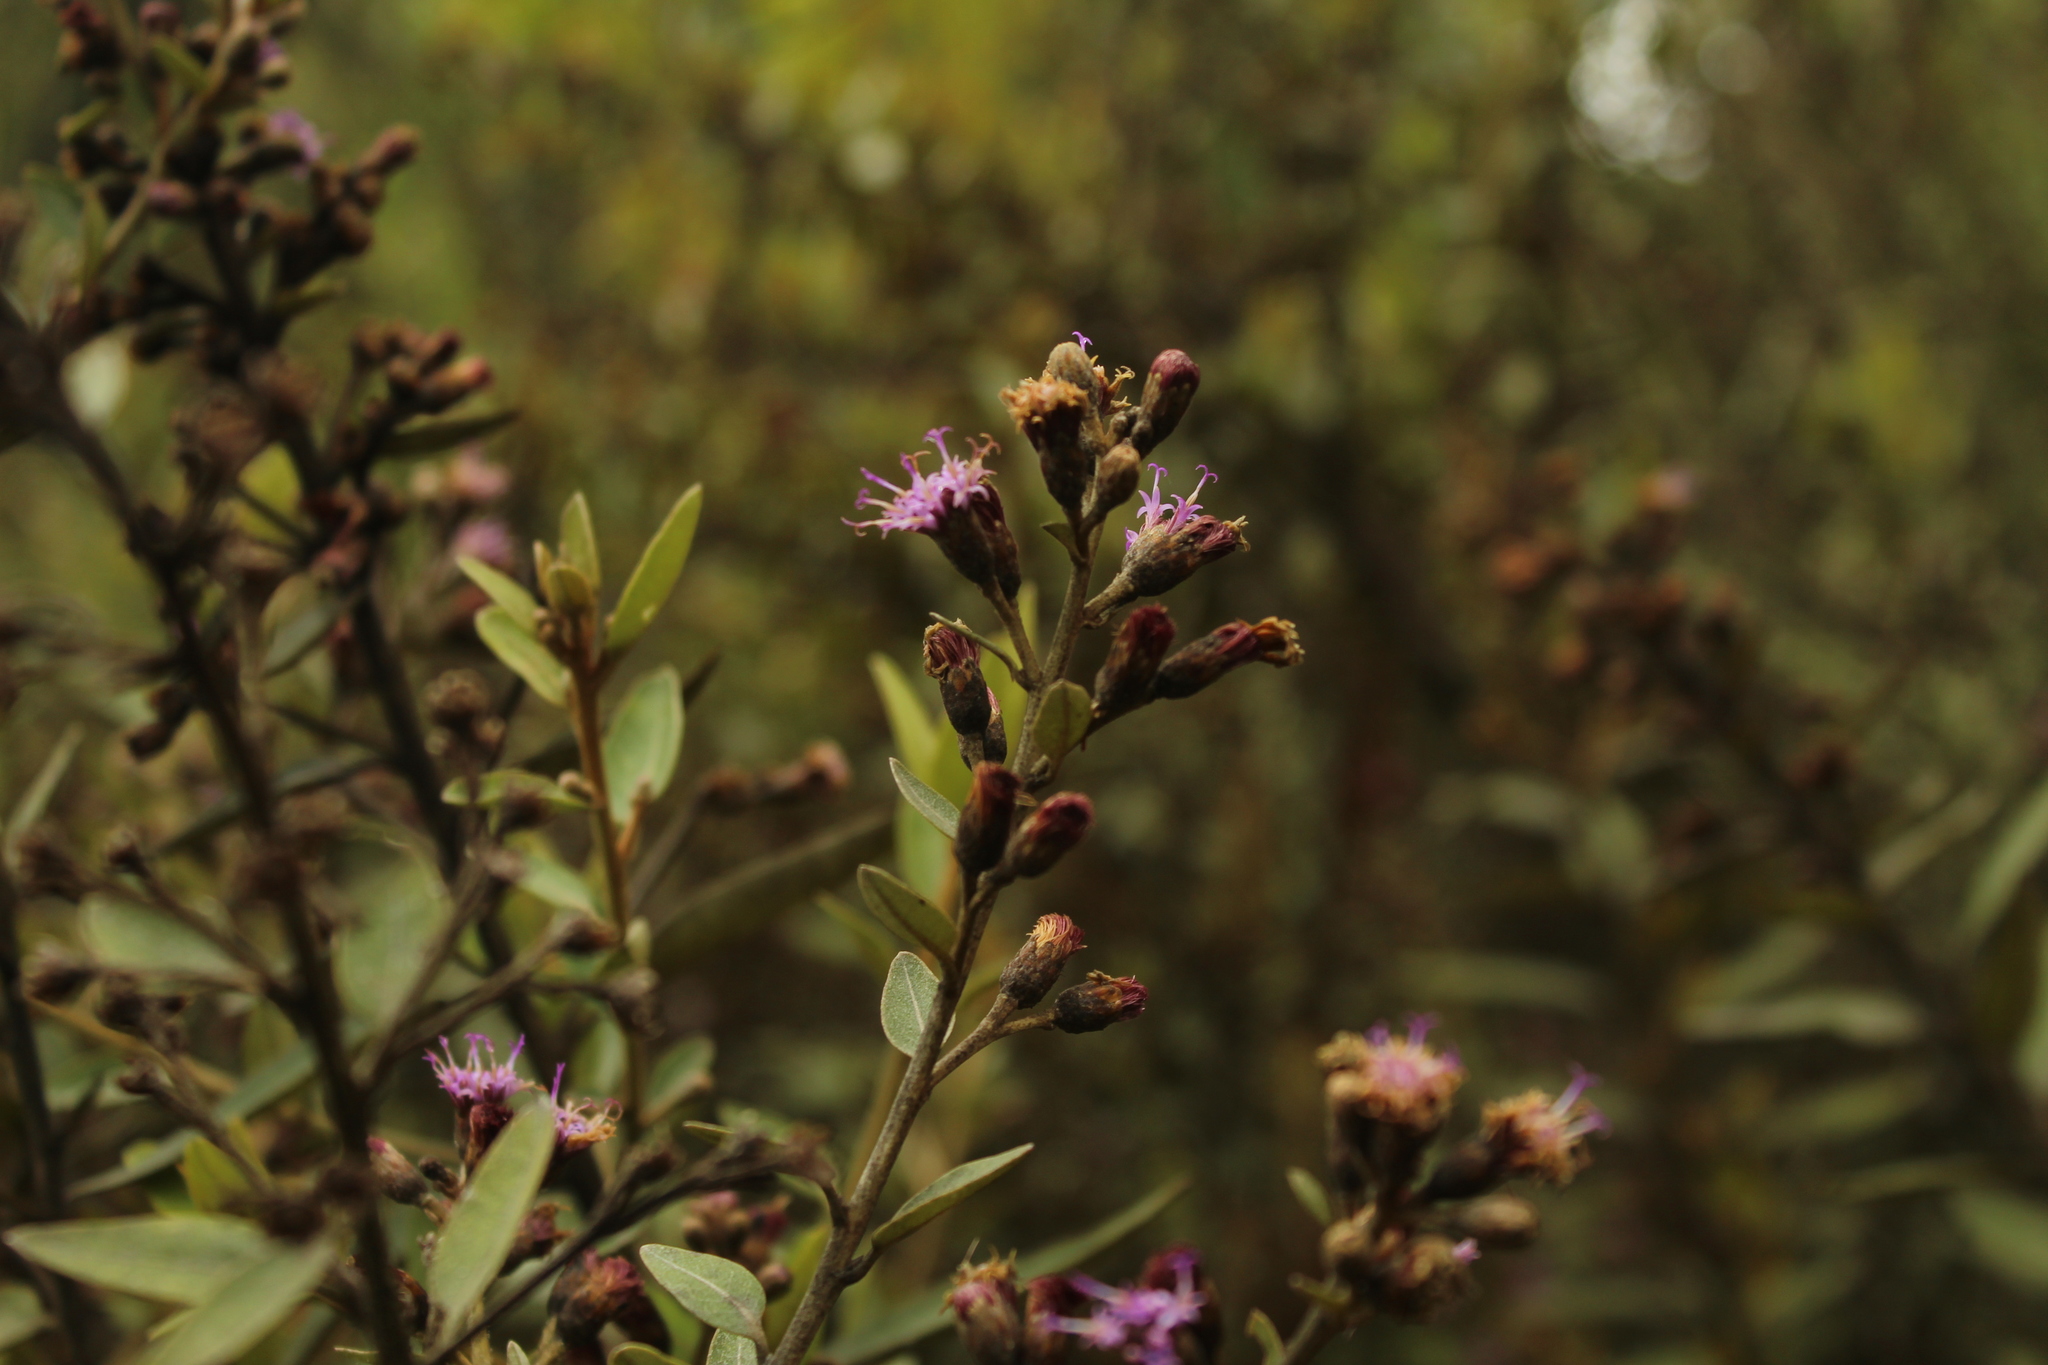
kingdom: Plantae
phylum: Tracheophyta
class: Magnoliopsida
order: Asterales
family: Asteraceae
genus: Lepidaploa
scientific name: Lepidaploa karstenii
